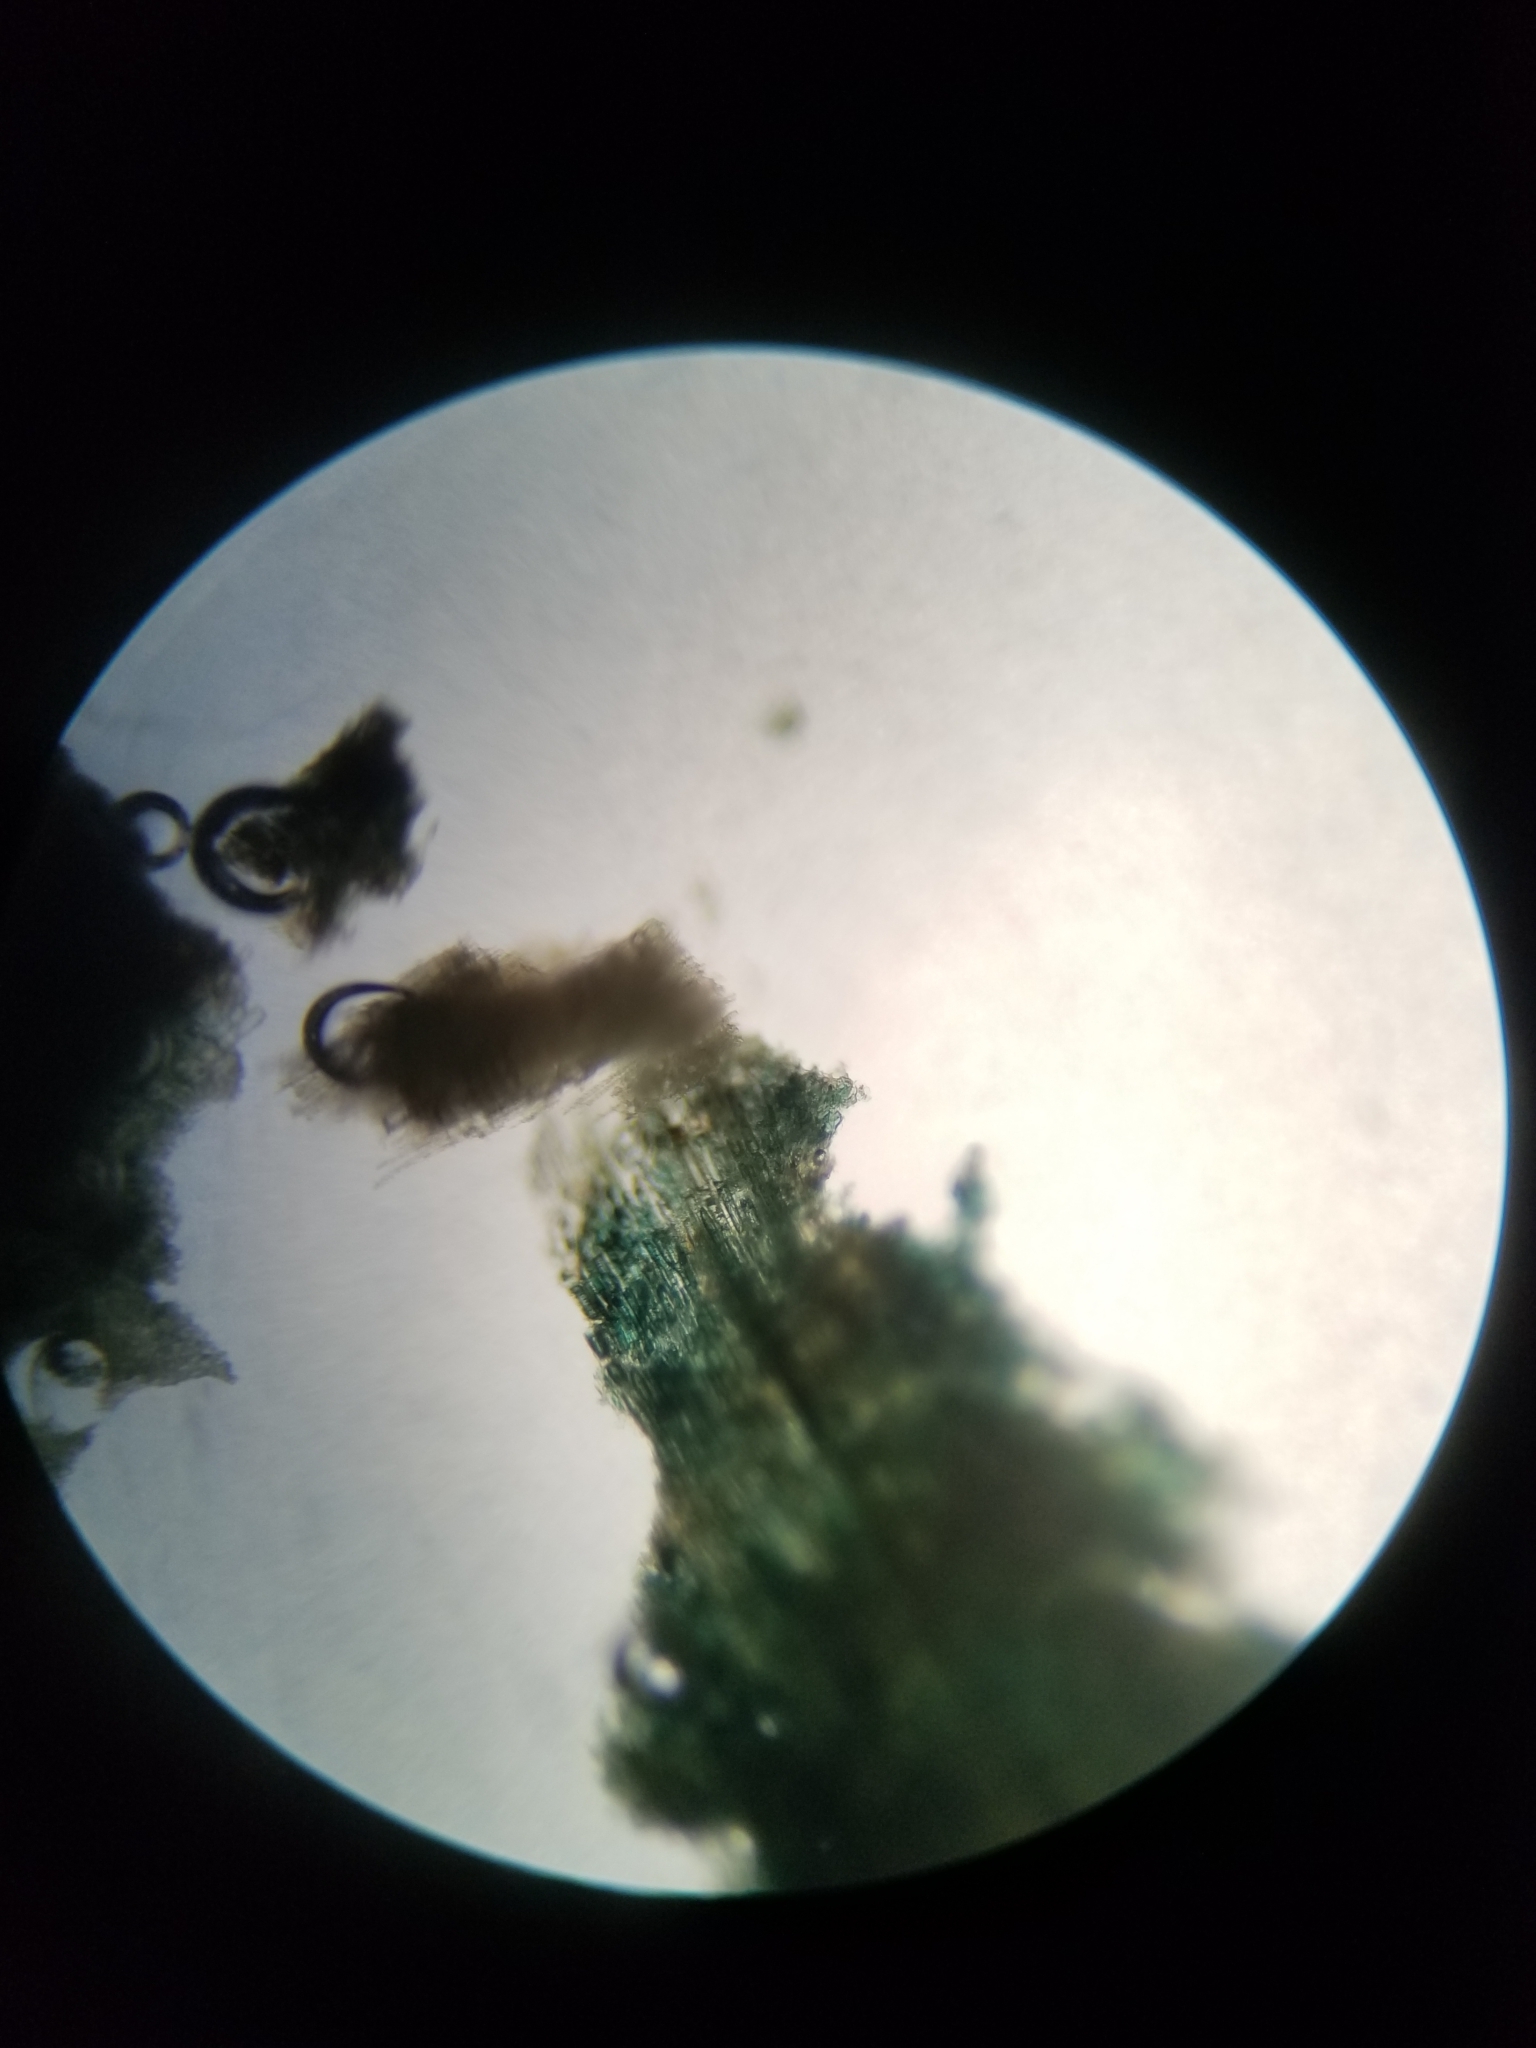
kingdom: Fungi
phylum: Ascomycota
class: Leotiomycetes
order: Helotiales
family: Chlorociboriaceae
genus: Chlorociboria
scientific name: Chlorociboria
